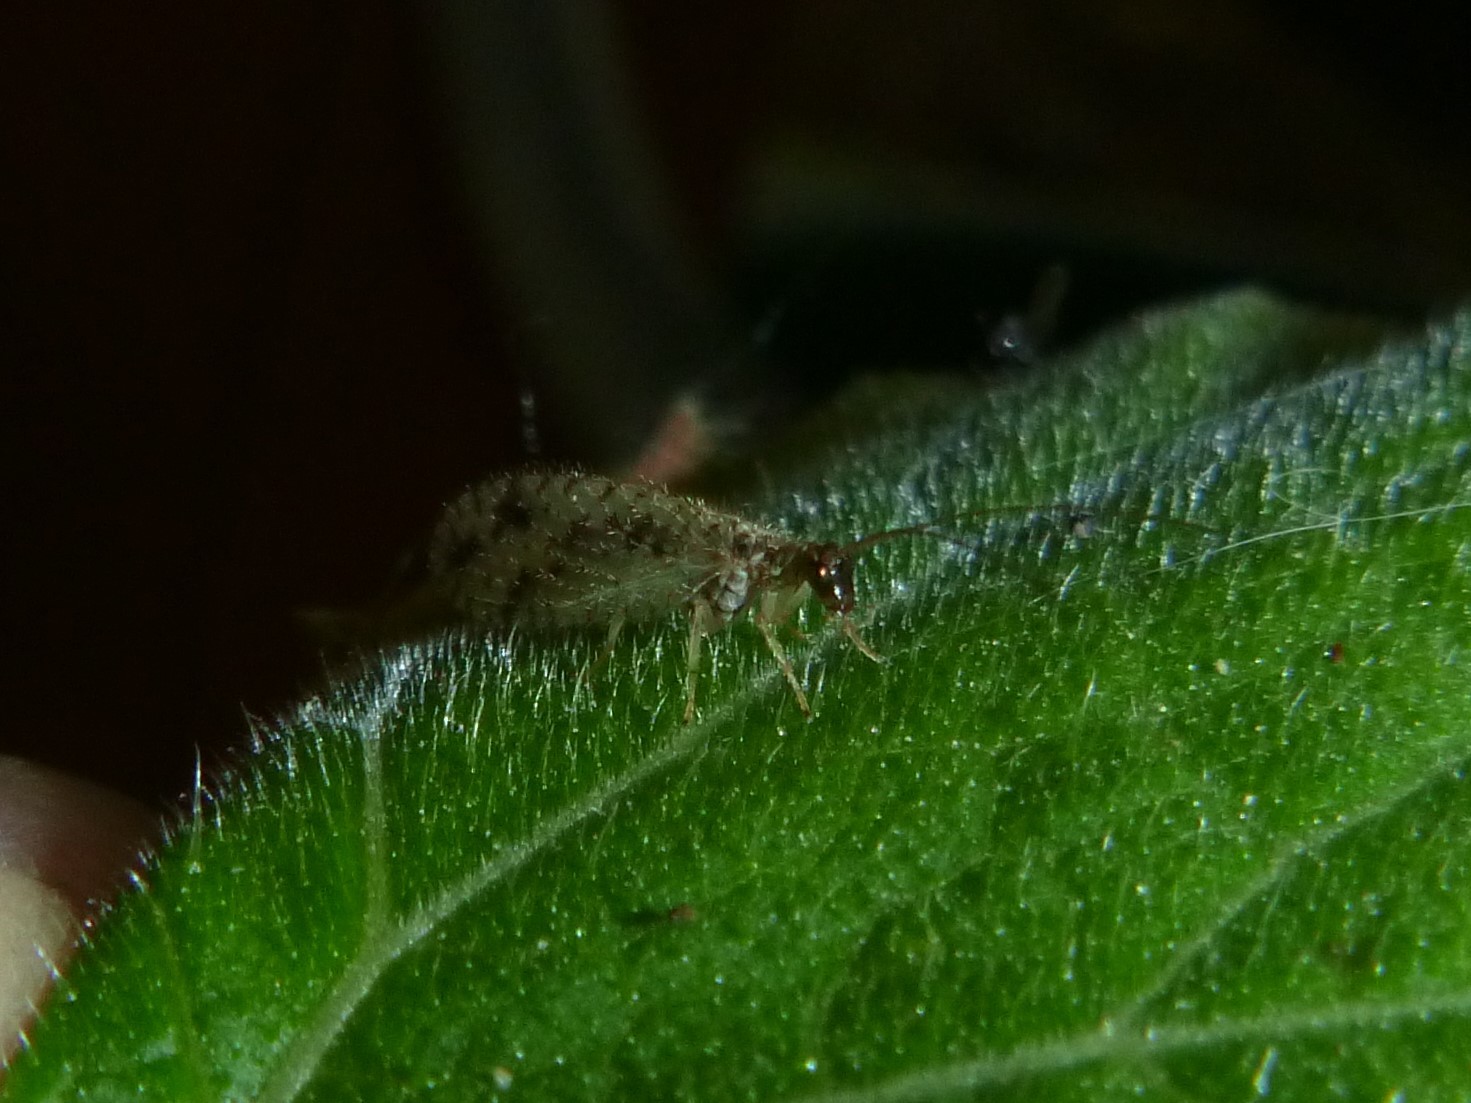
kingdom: Animalia
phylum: Arthropoda
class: Insecta
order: Neuroptera
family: Hemerobiidae
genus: Micromus
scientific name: Micromus variegatus
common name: Brown lacewing
